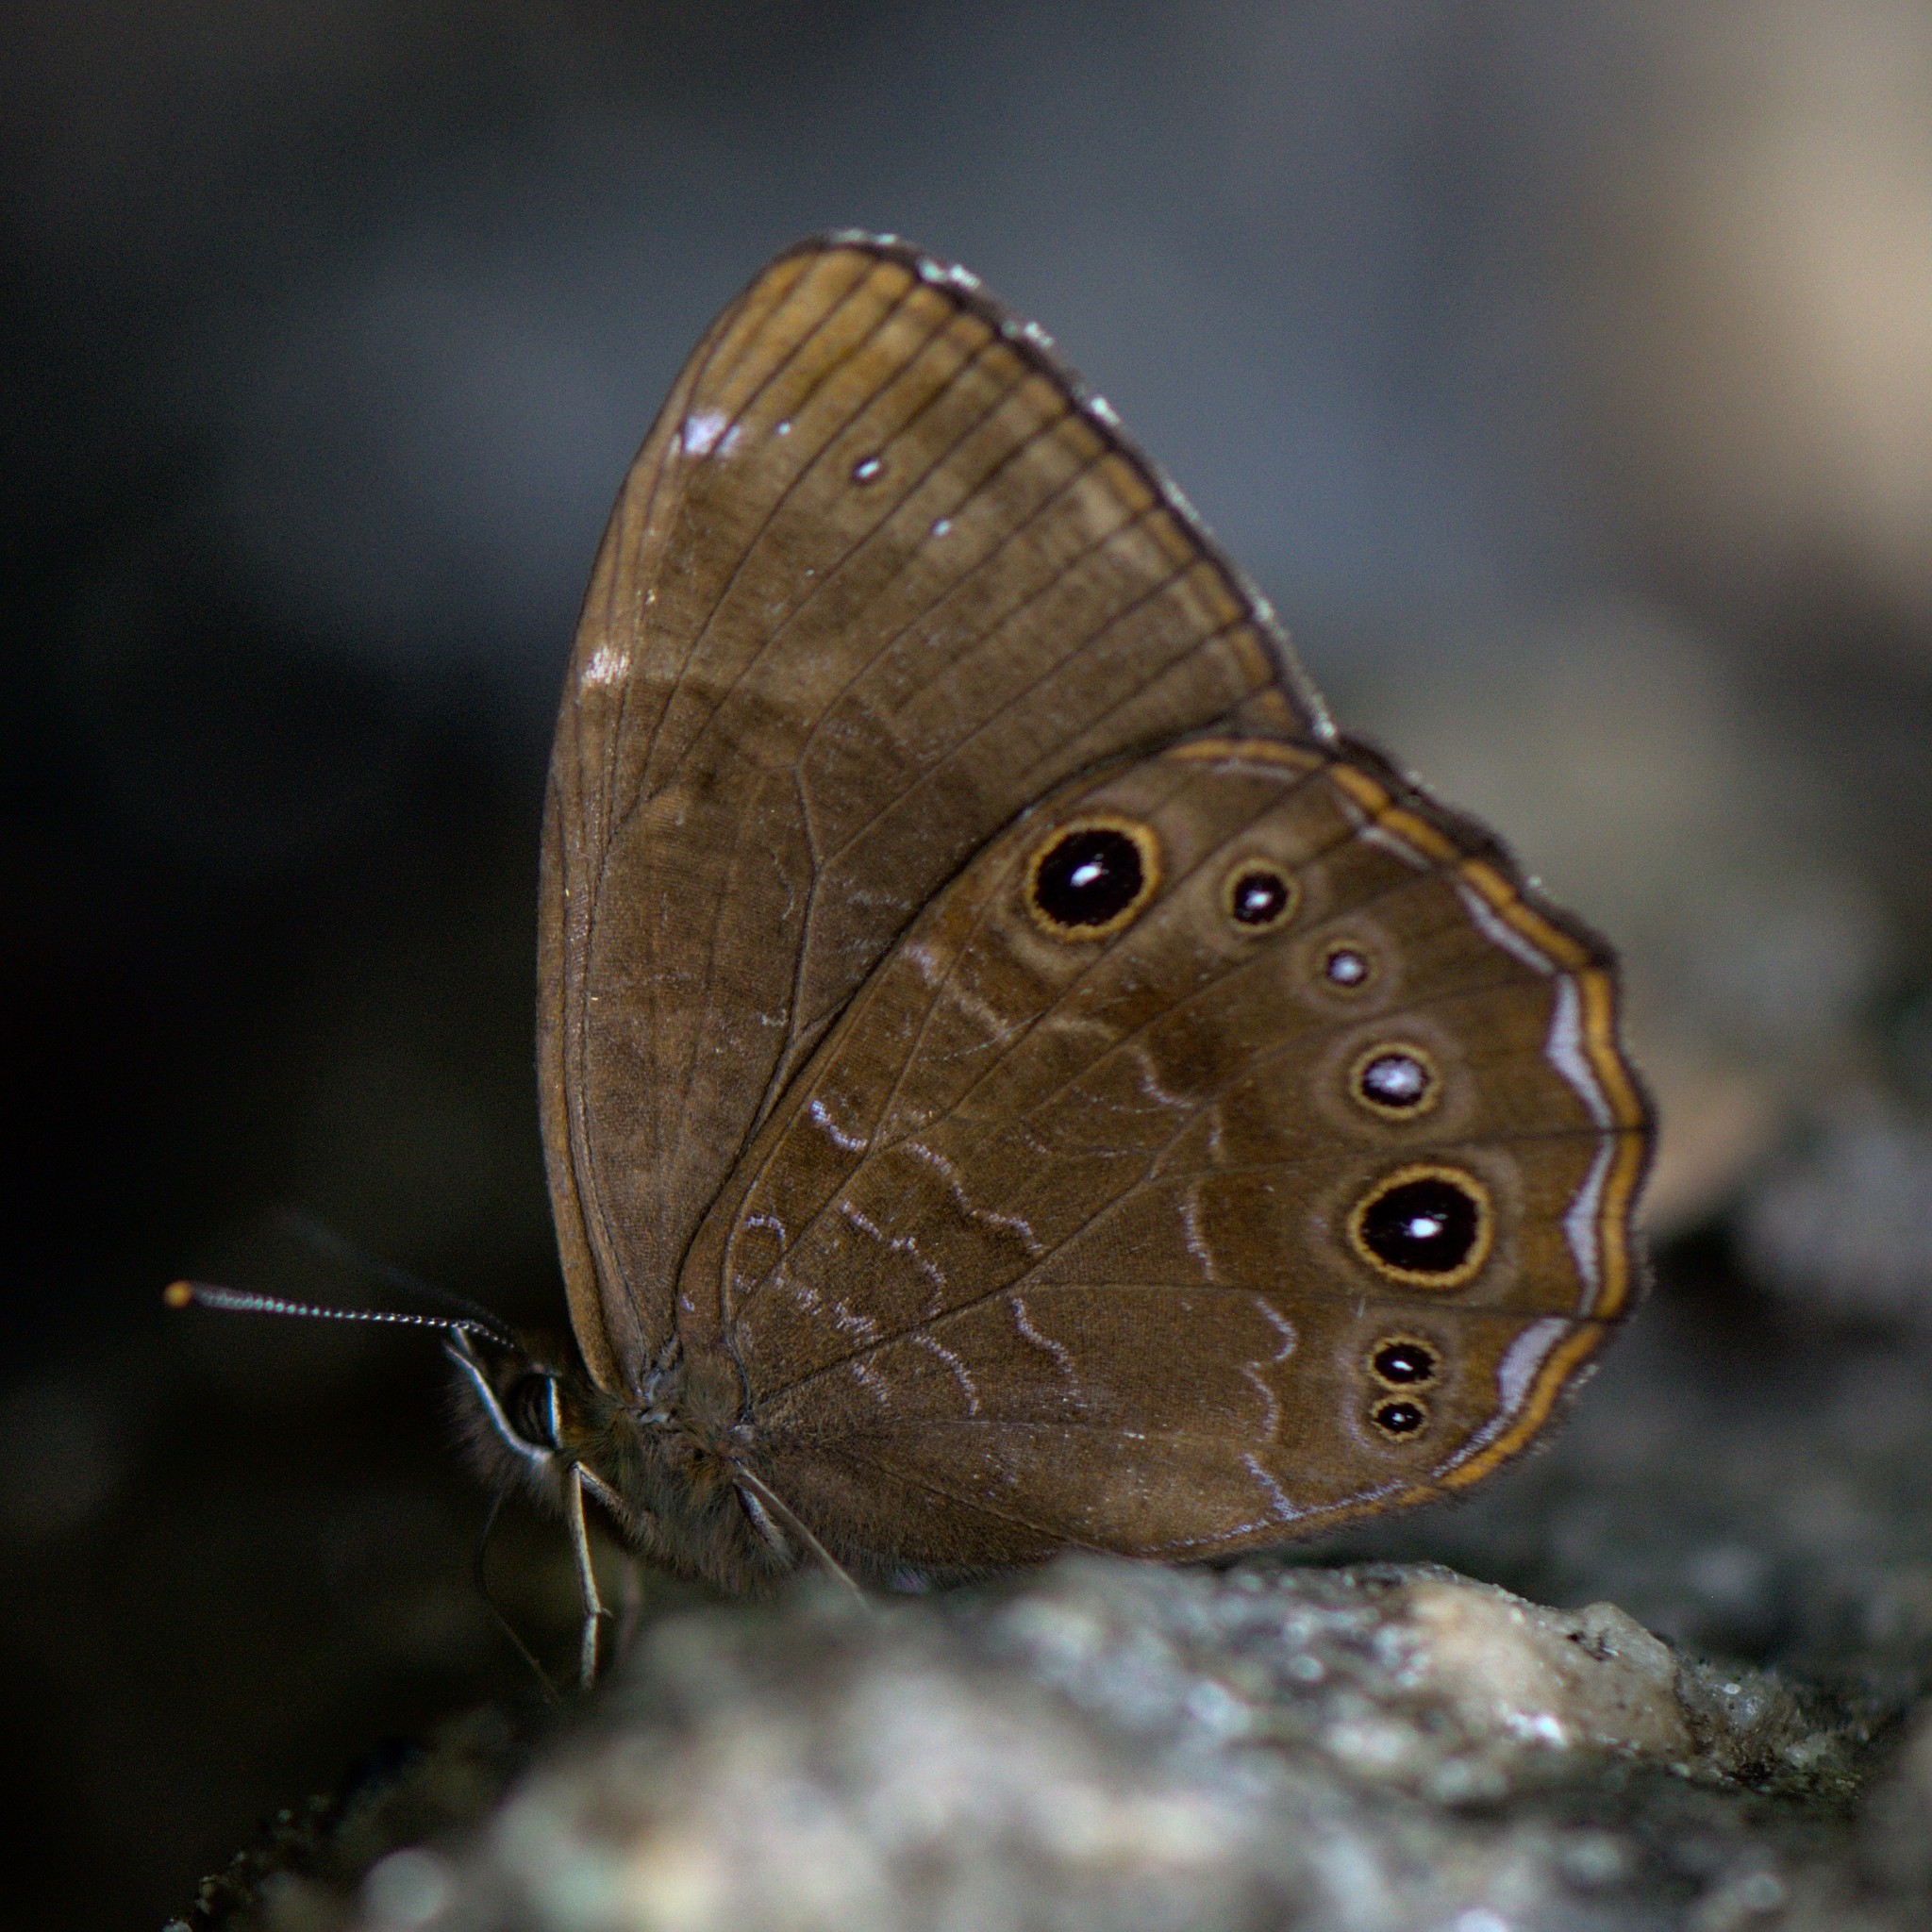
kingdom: Animalia
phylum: Arthropoda
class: Insecta
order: Lepidoptera
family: Nymphalidae
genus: Lethe
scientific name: Lethe sidonis
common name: Common woodbrown butterfly
